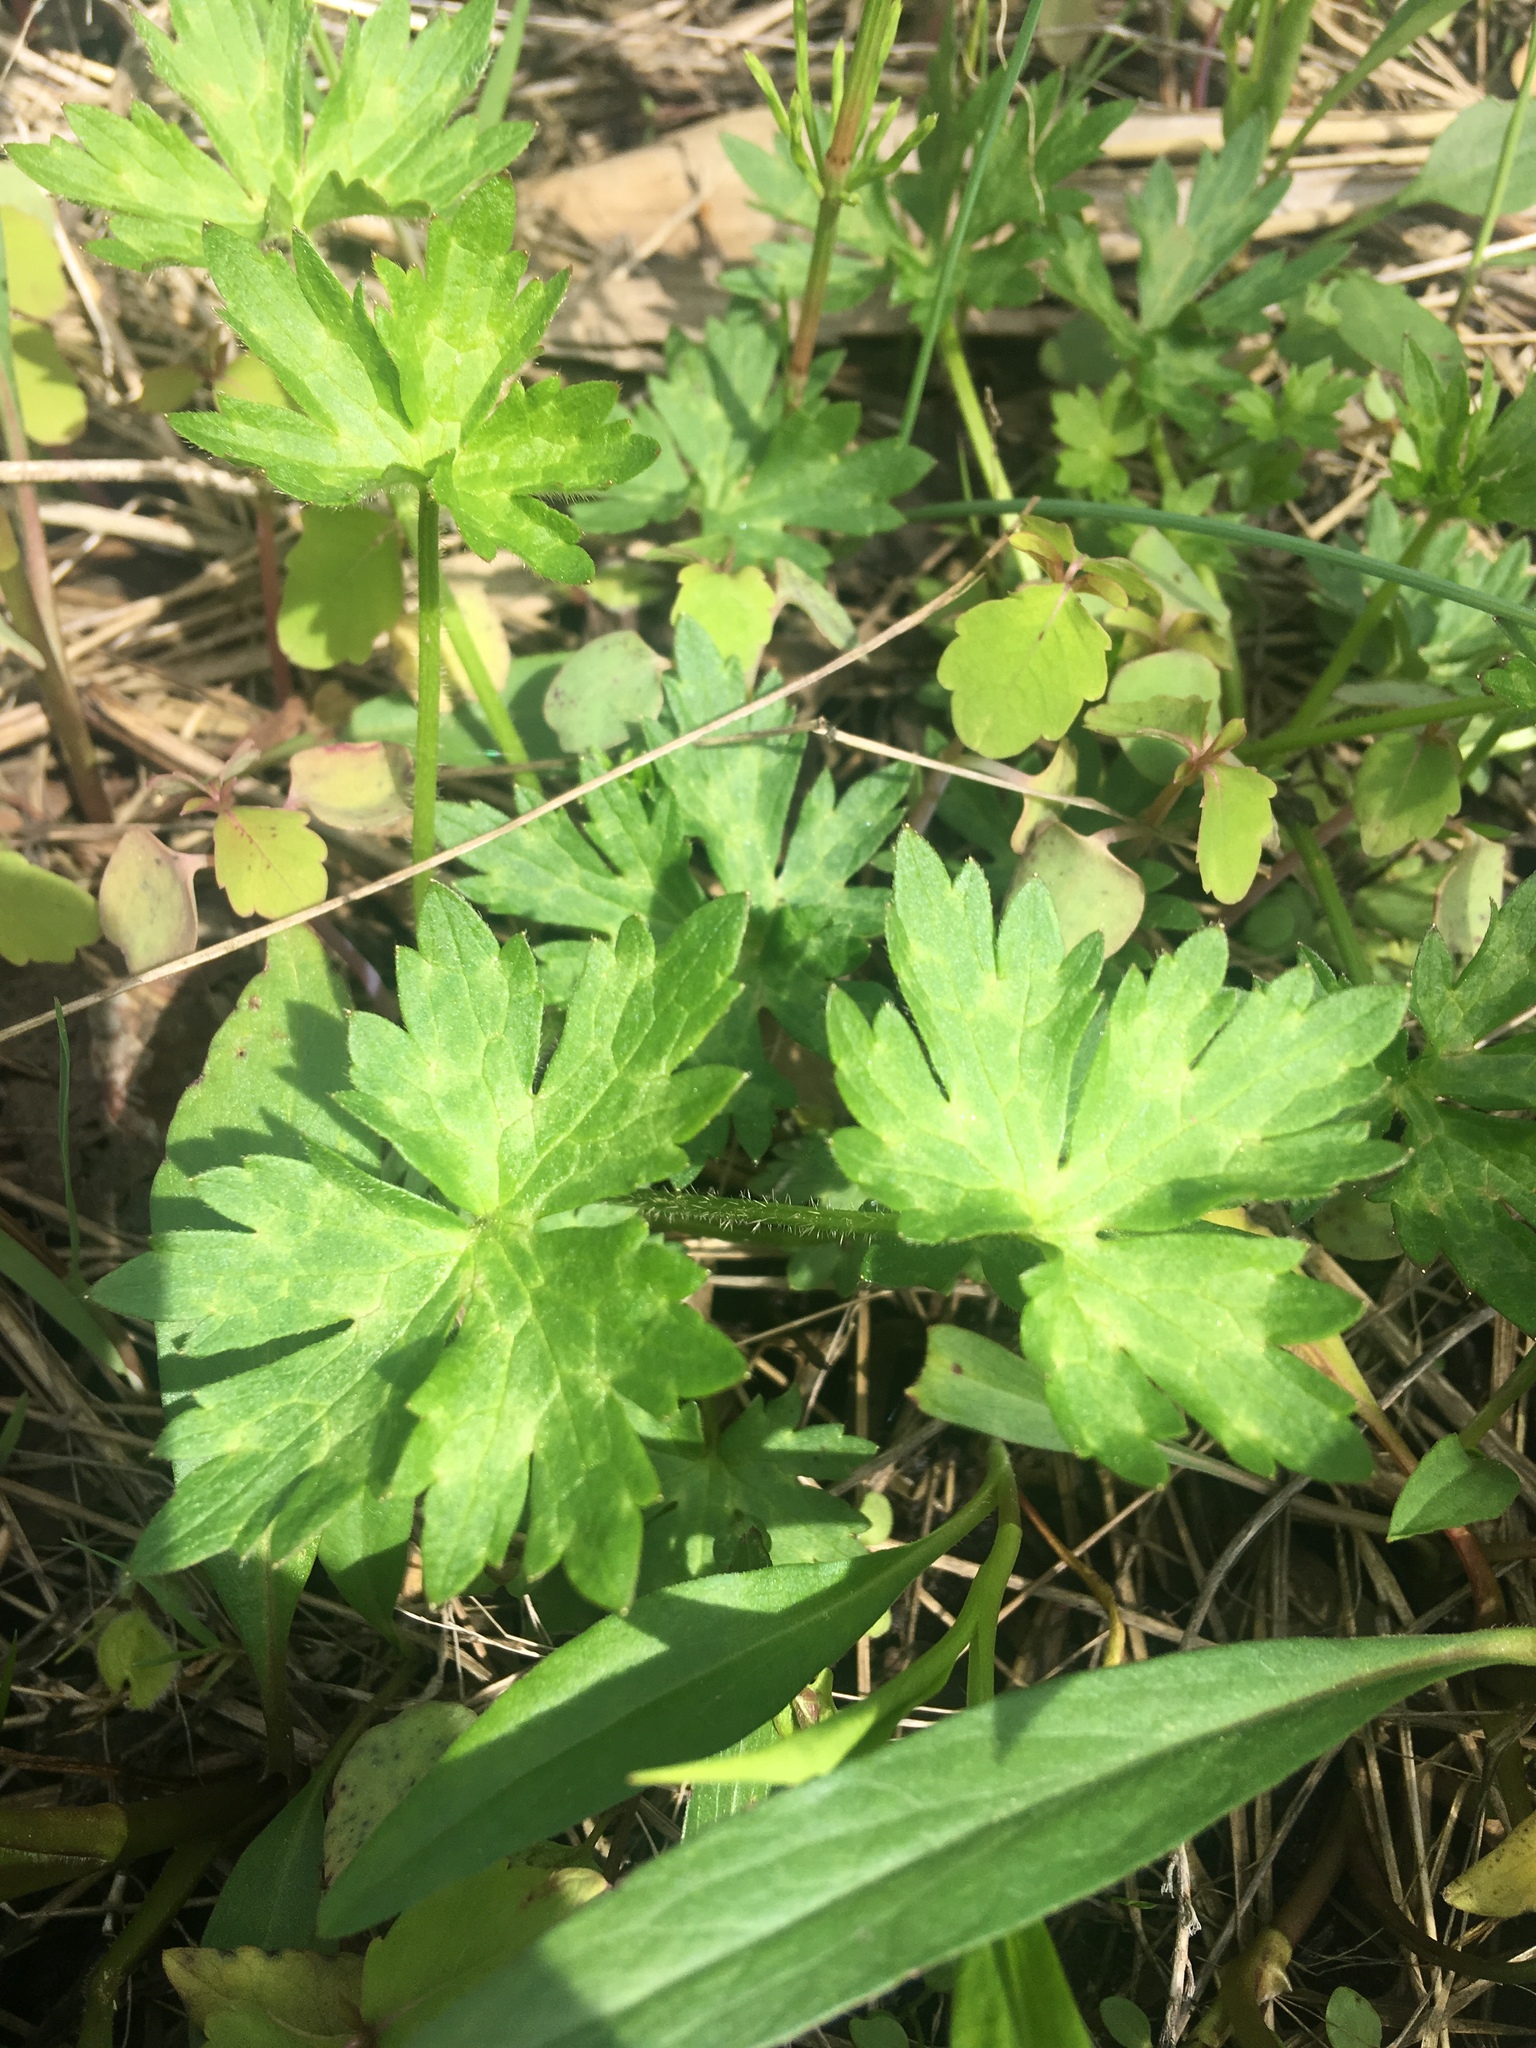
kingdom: Plantae
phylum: Tracheophyta
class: Magnoliopsida
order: Ranunculales
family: Ranunculaceae
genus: Ranunculus
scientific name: Ranunculus repens
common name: Creeping buttercup
